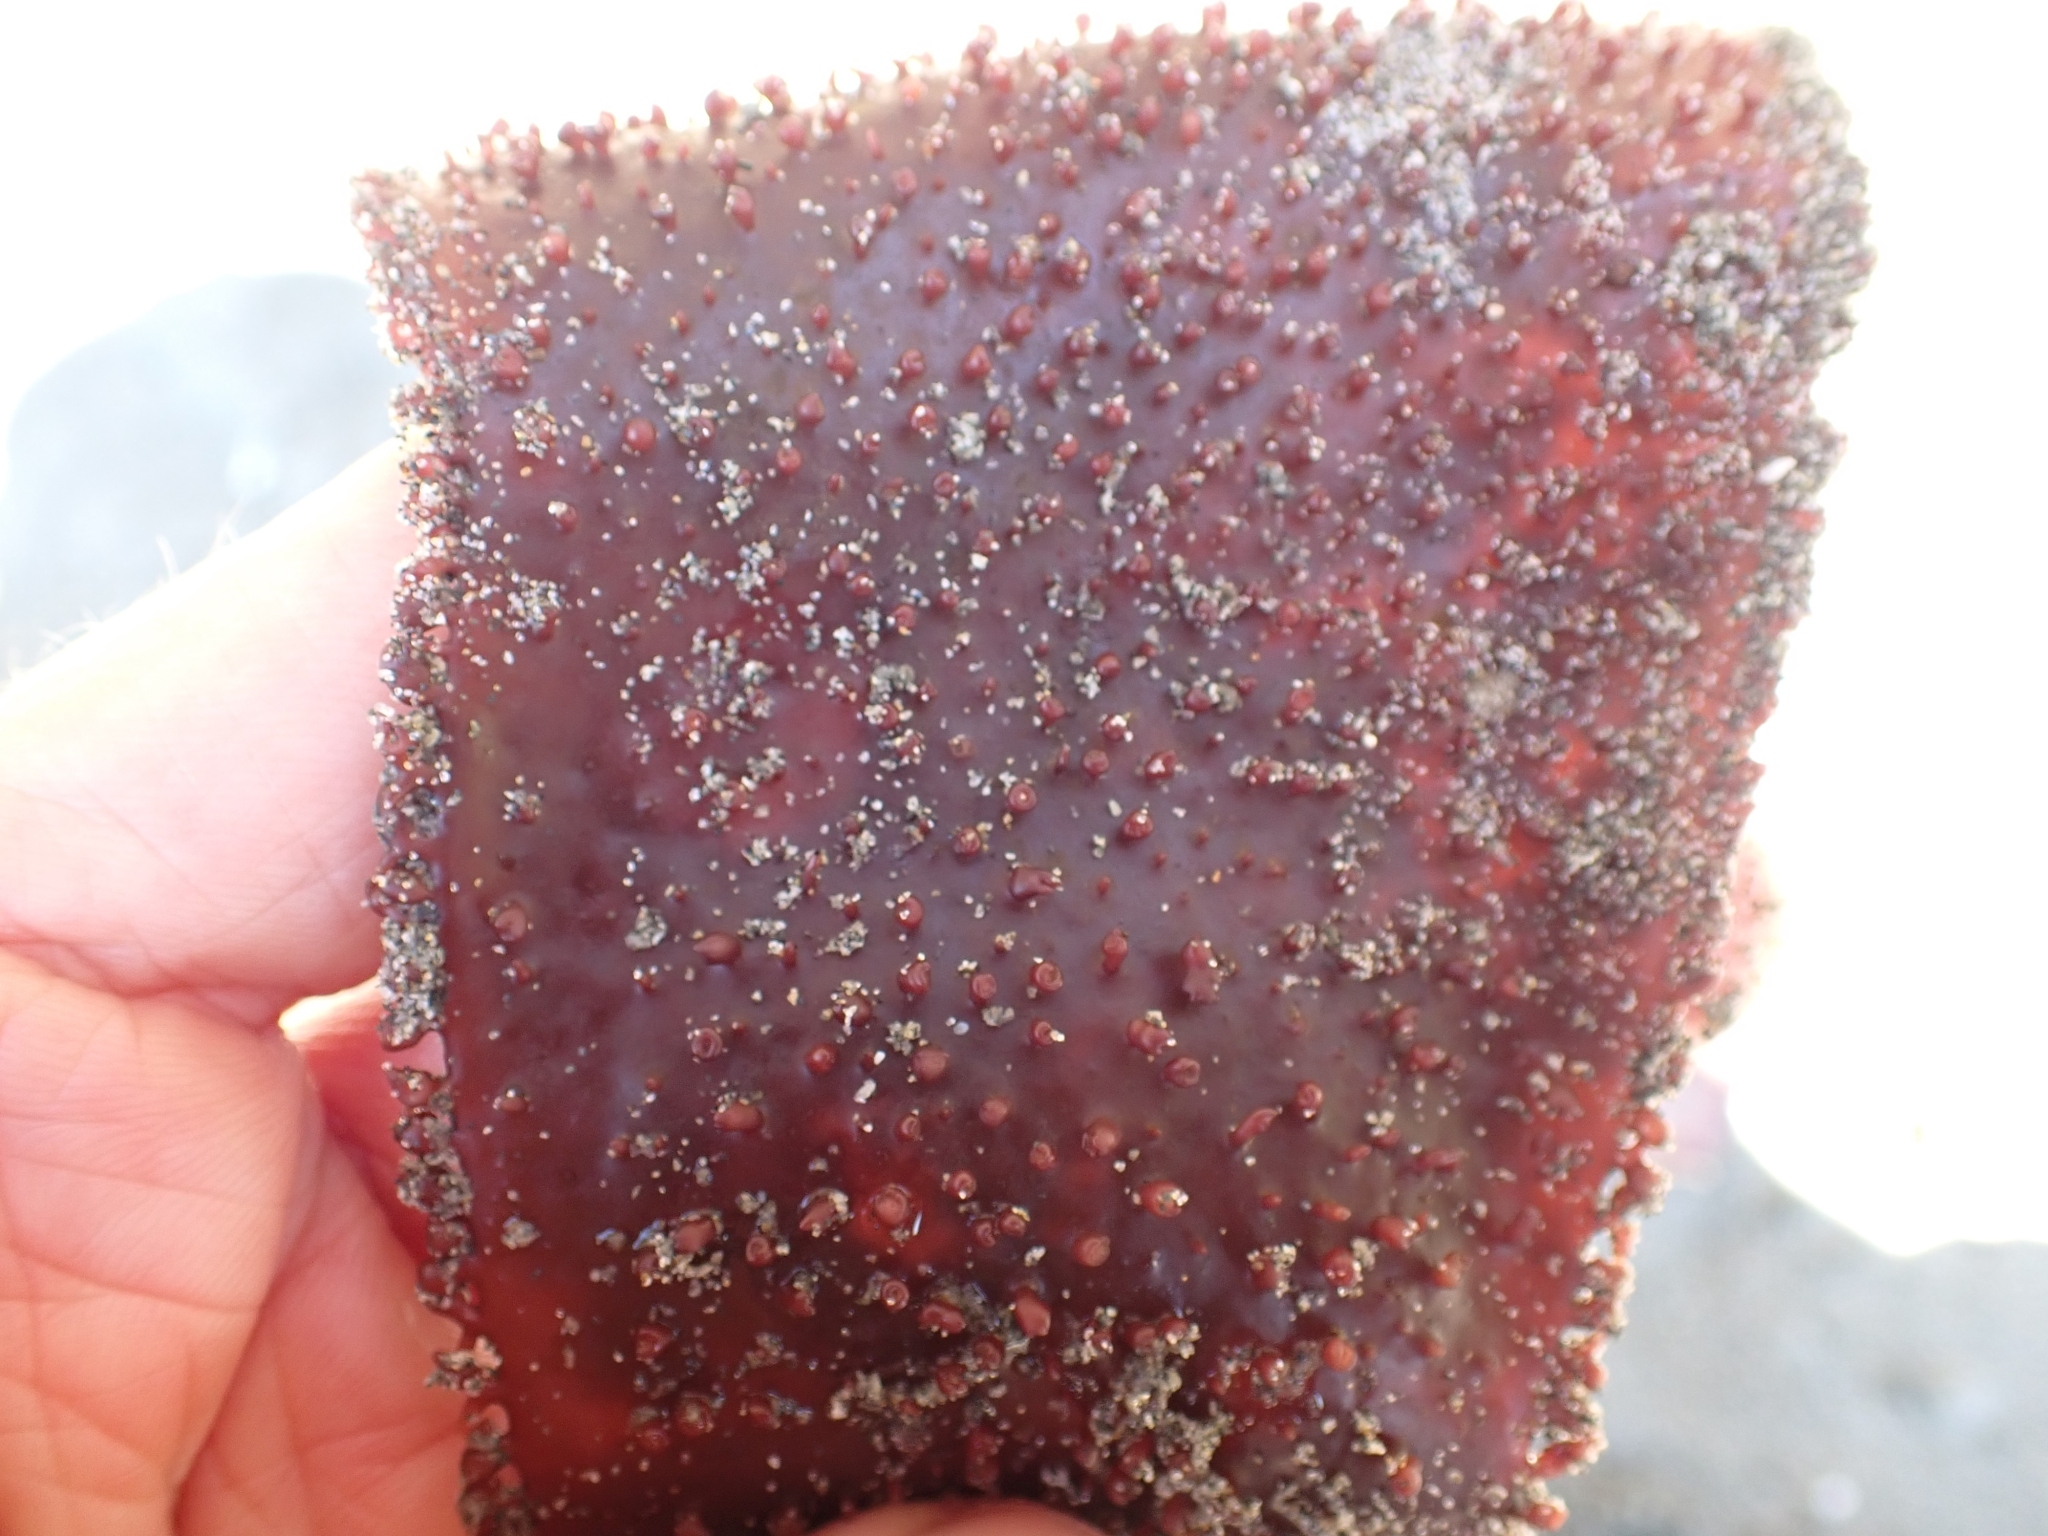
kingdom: Plantae
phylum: Rhodophyta
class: Florideophyceae
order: Gigartinales
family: Gigartinaceae
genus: Chondracanthus
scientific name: Chondracanthus exasperatus
